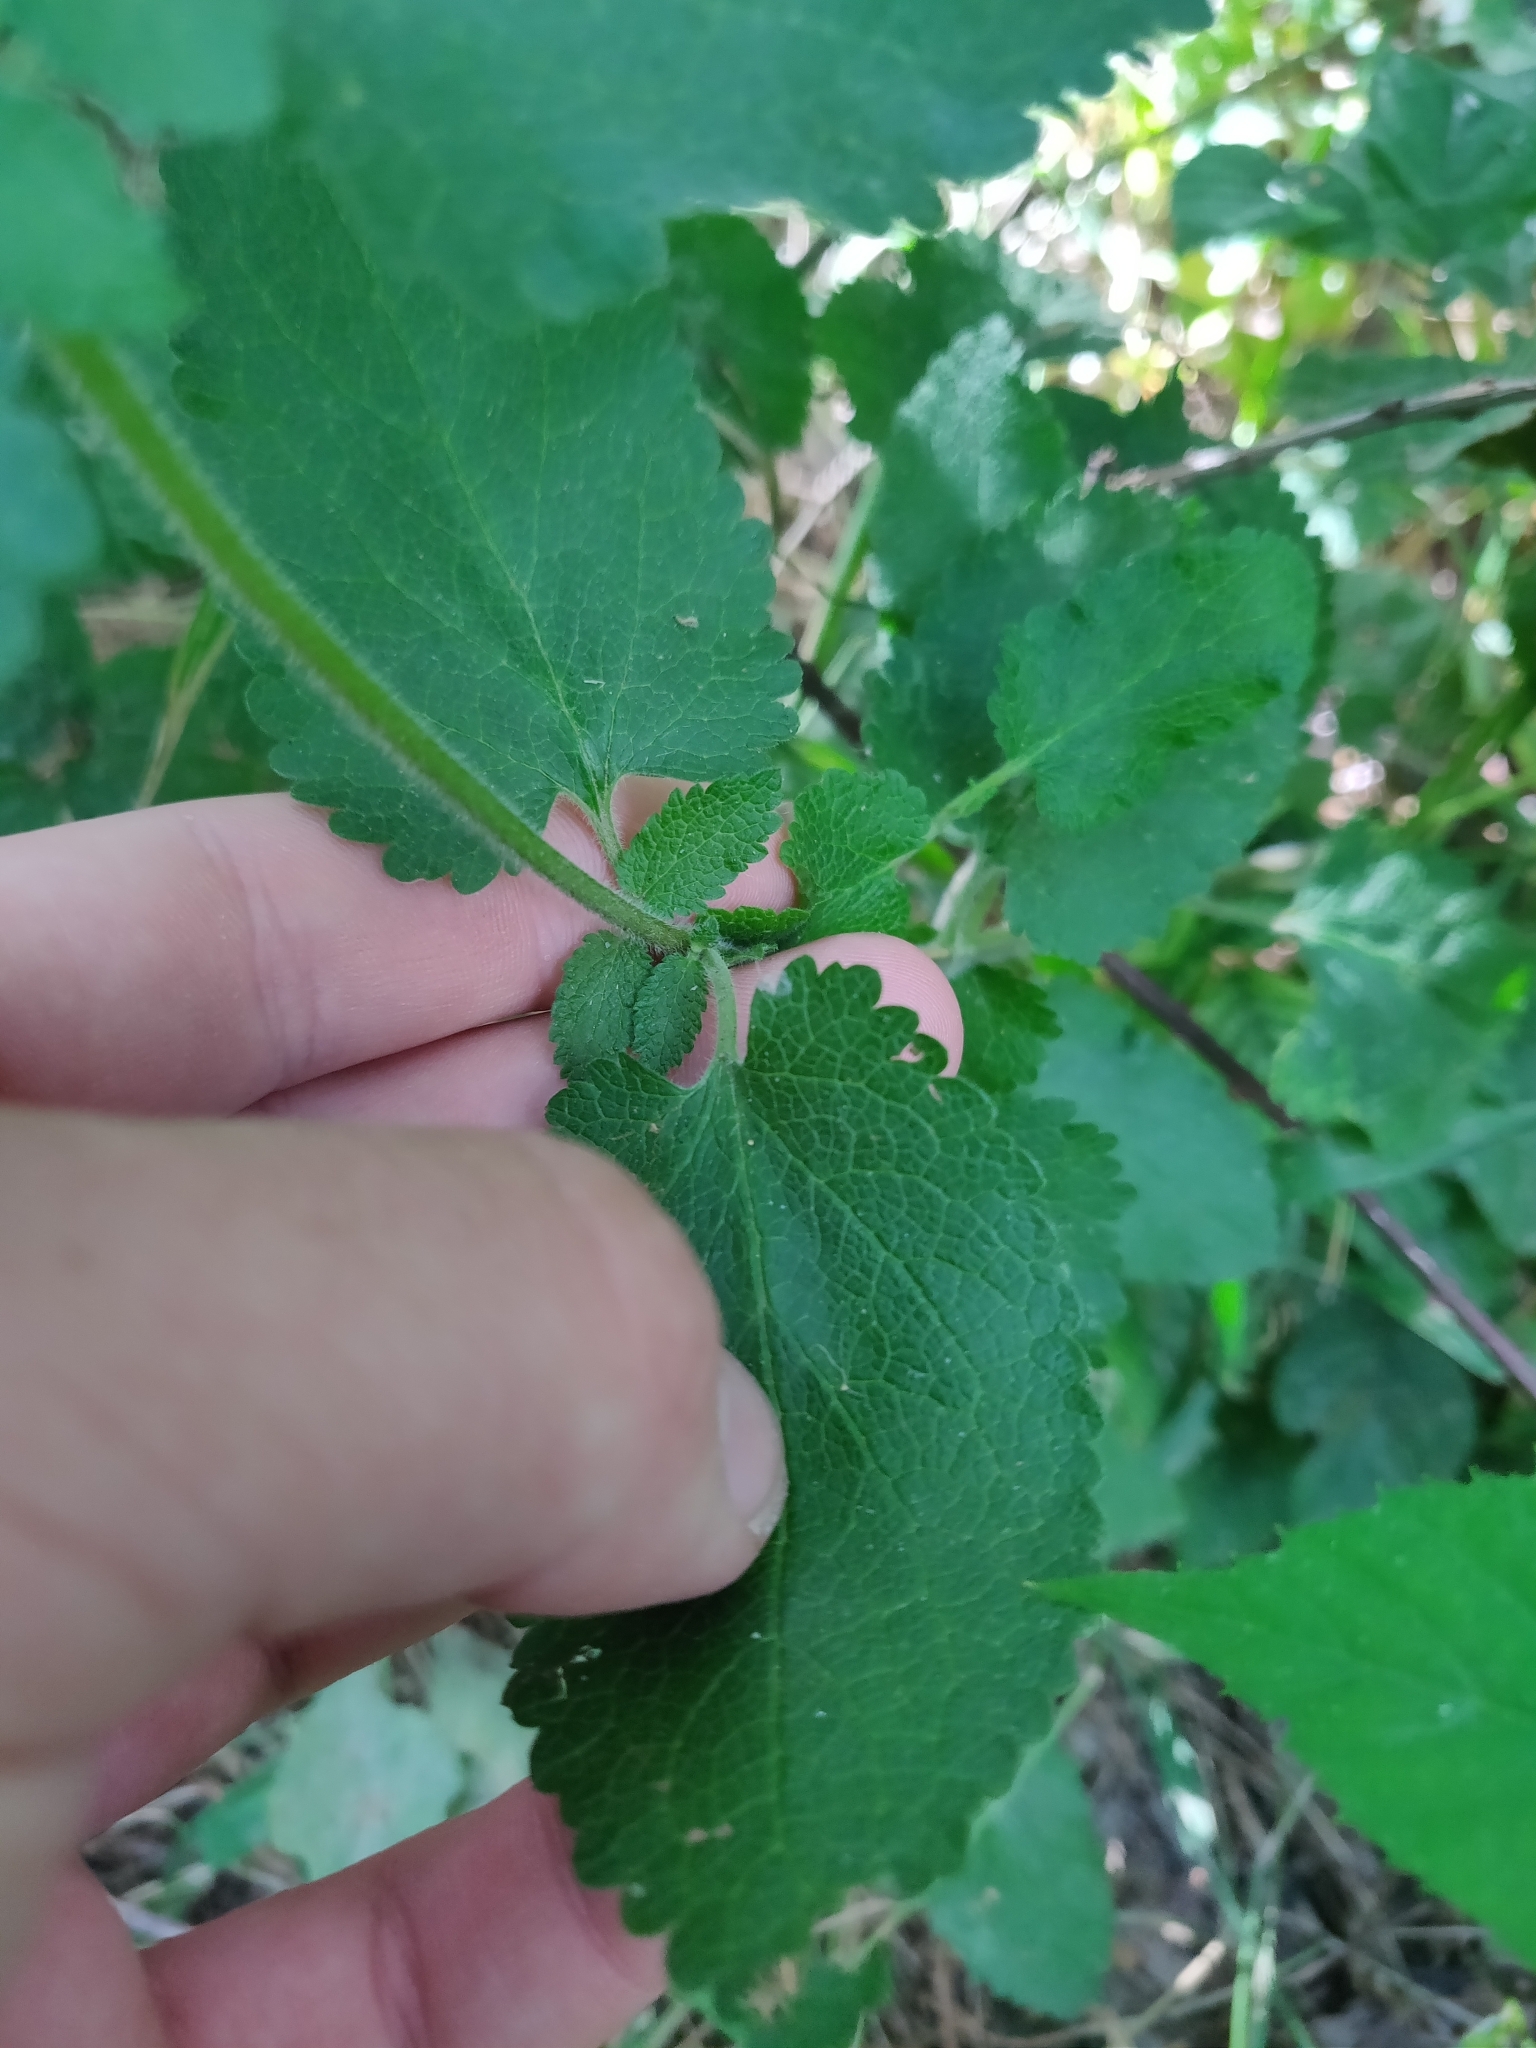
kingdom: Plantae
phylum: Tracheophyta
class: Magnoliopsida
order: Lamiales
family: Lamiaceae
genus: Teucrium
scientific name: Teucrium scorodonia
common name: Woodland germander
